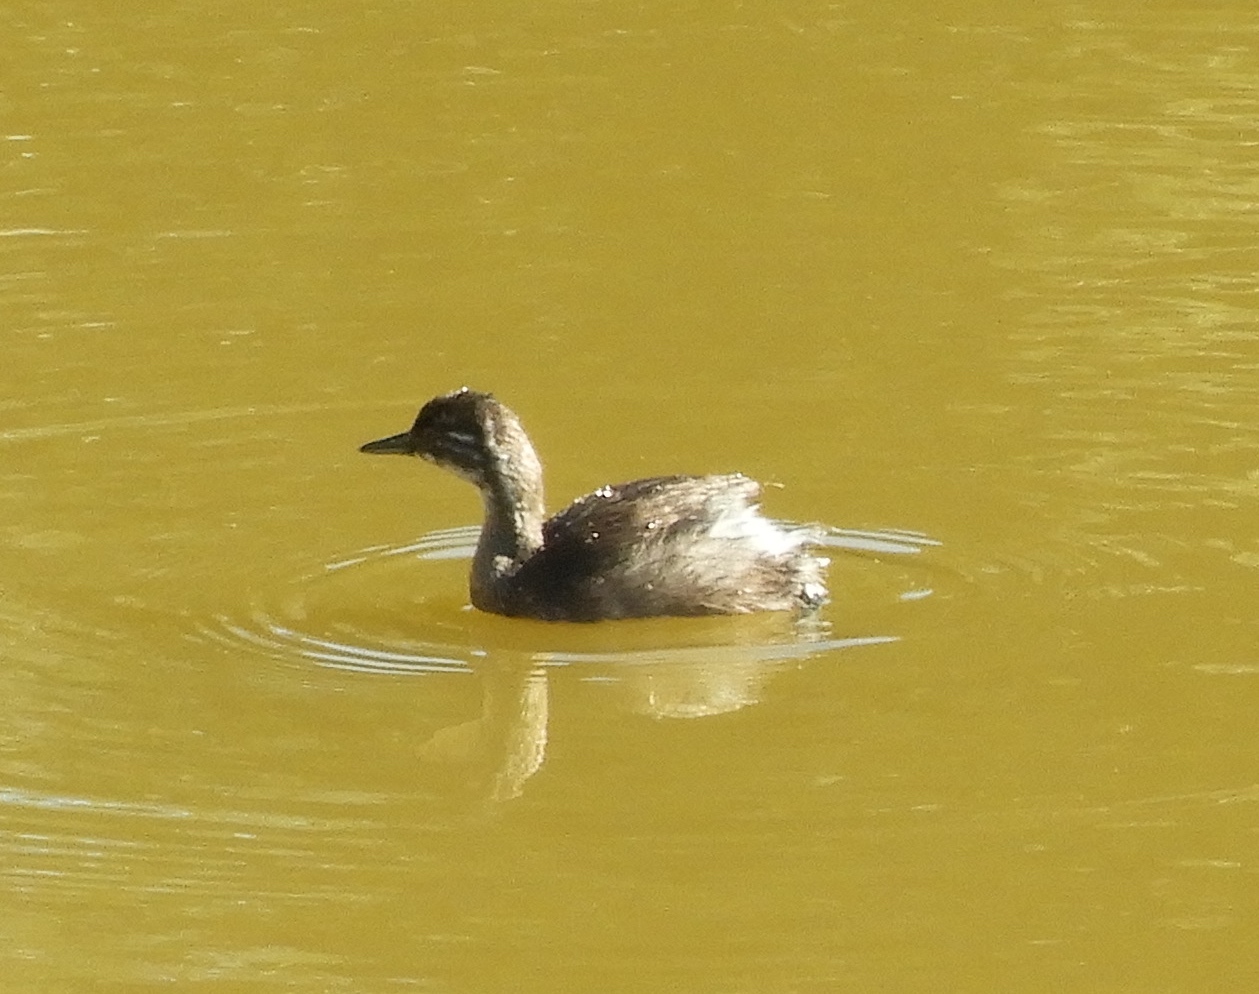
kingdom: Animalia
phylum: Chordata
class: Aves
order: Podicipediformes
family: Podicipedidae
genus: Tachybaptus
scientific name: Tachybaptus dominicus
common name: Least grebe
